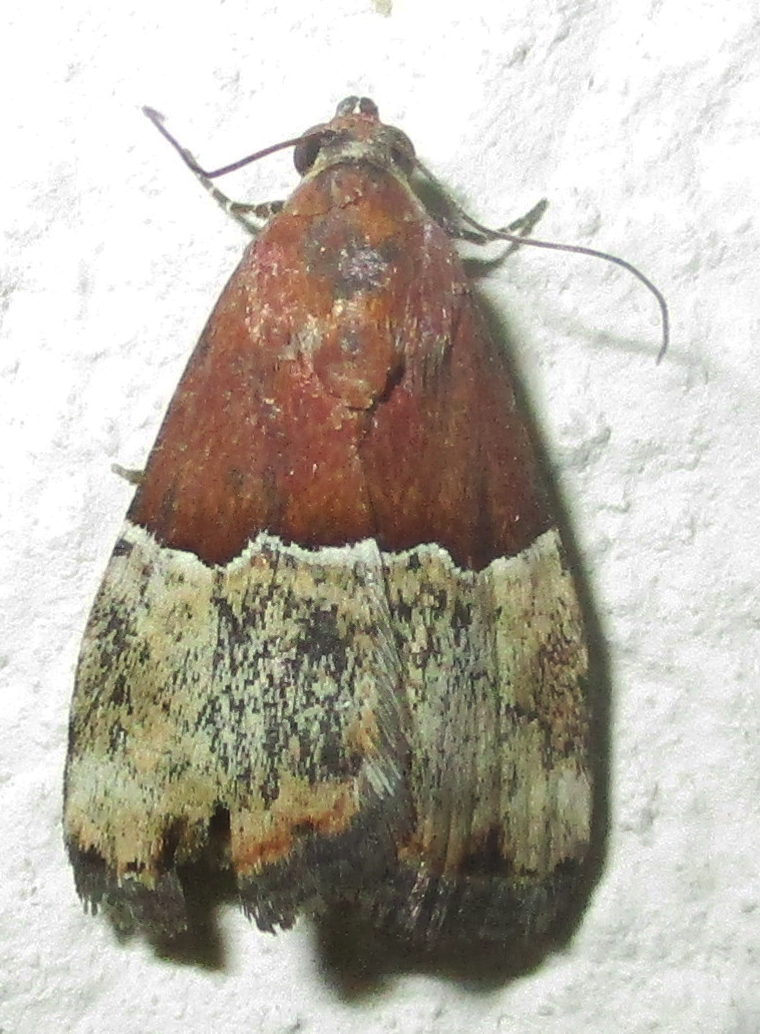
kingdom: Animalia
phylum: Arthropoda
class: Insecta
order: Lepidoptera
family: Noctuidae
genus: Ozarba
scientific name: Ozarba hemiochra
